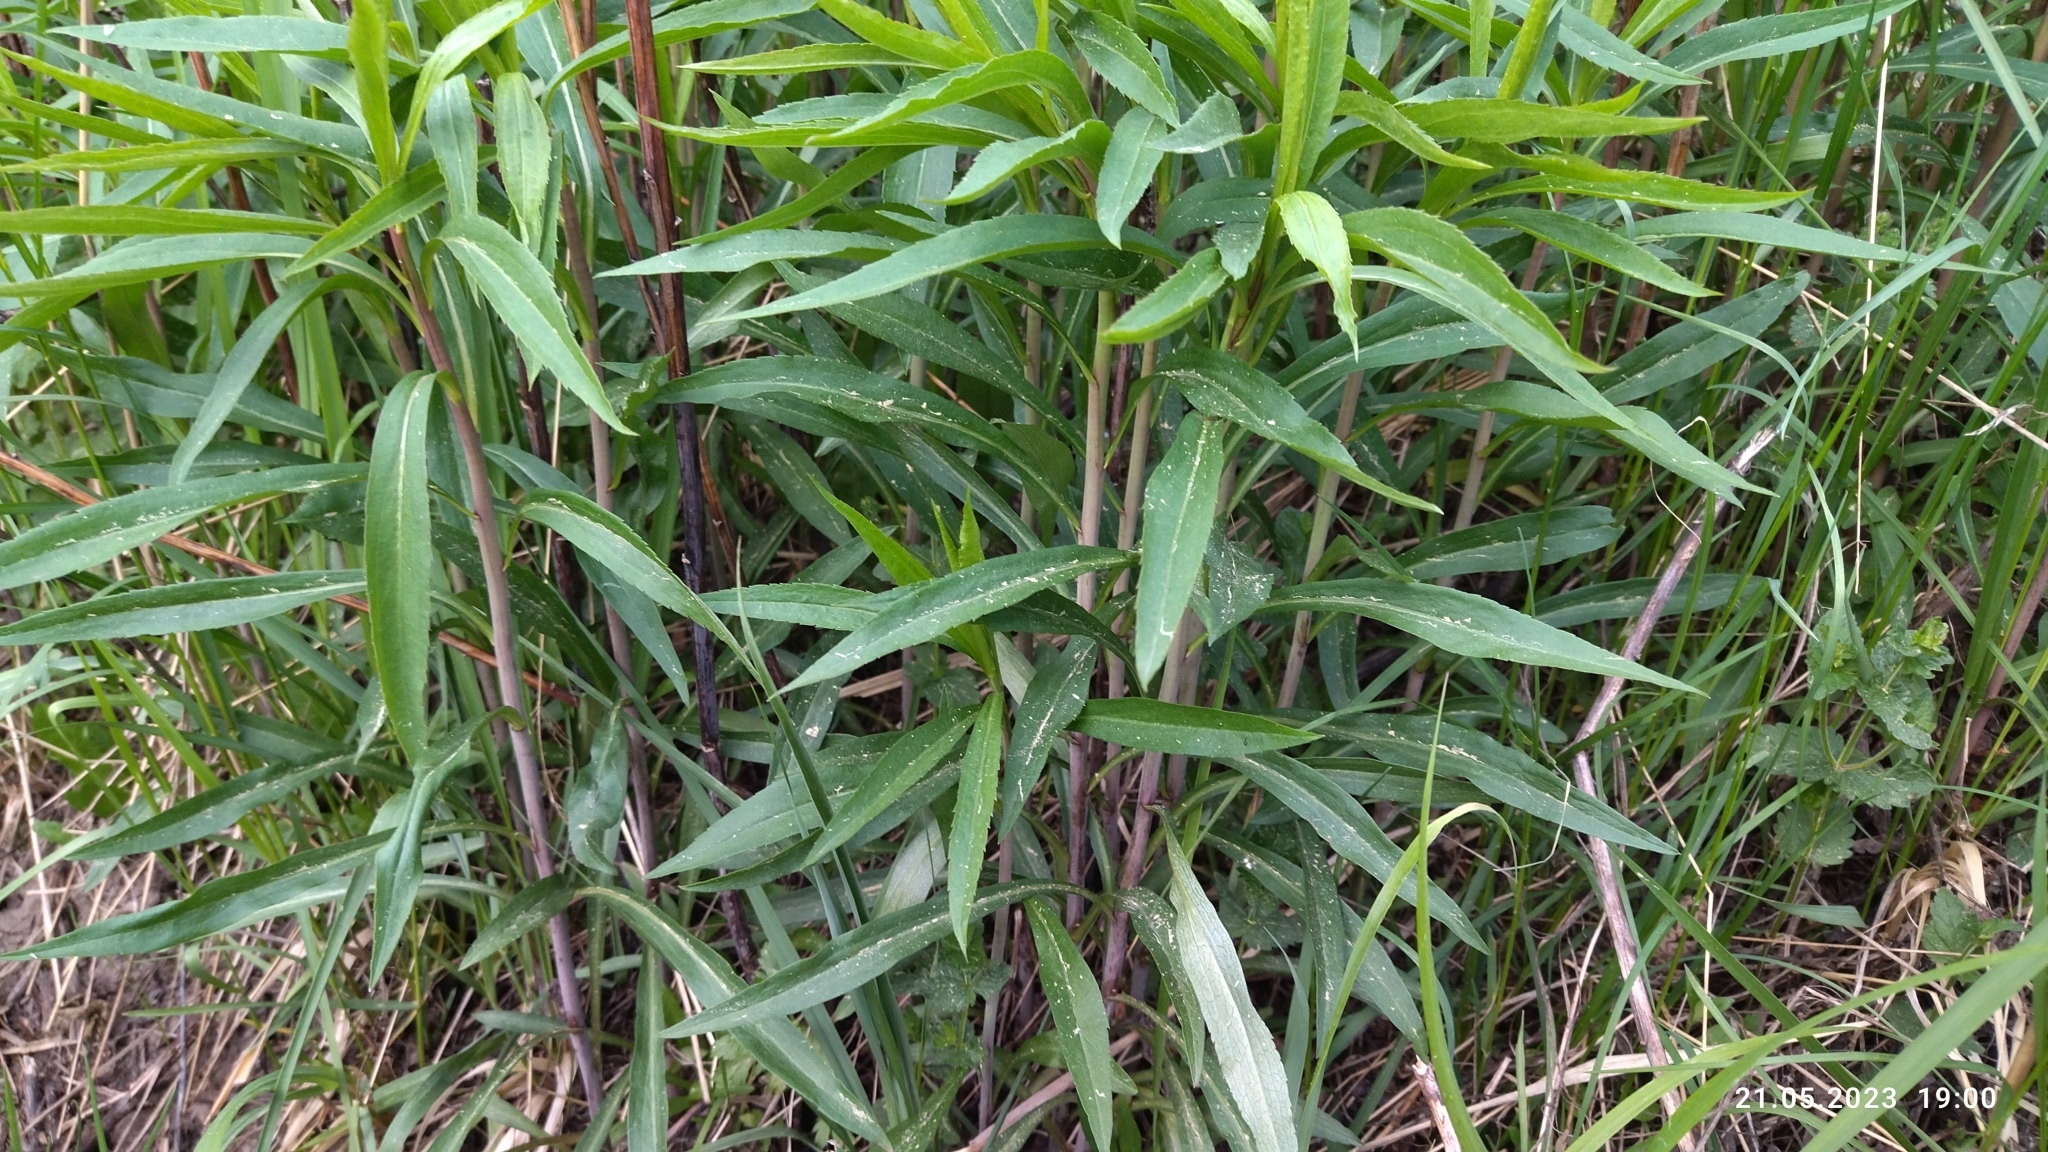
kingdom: Plantae
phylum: Tracheophyta
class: Magnoliopsida
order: Asterales
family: Asteraceae
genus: Solidago
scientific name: Solidago gigantea
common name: Giant goldenrod
